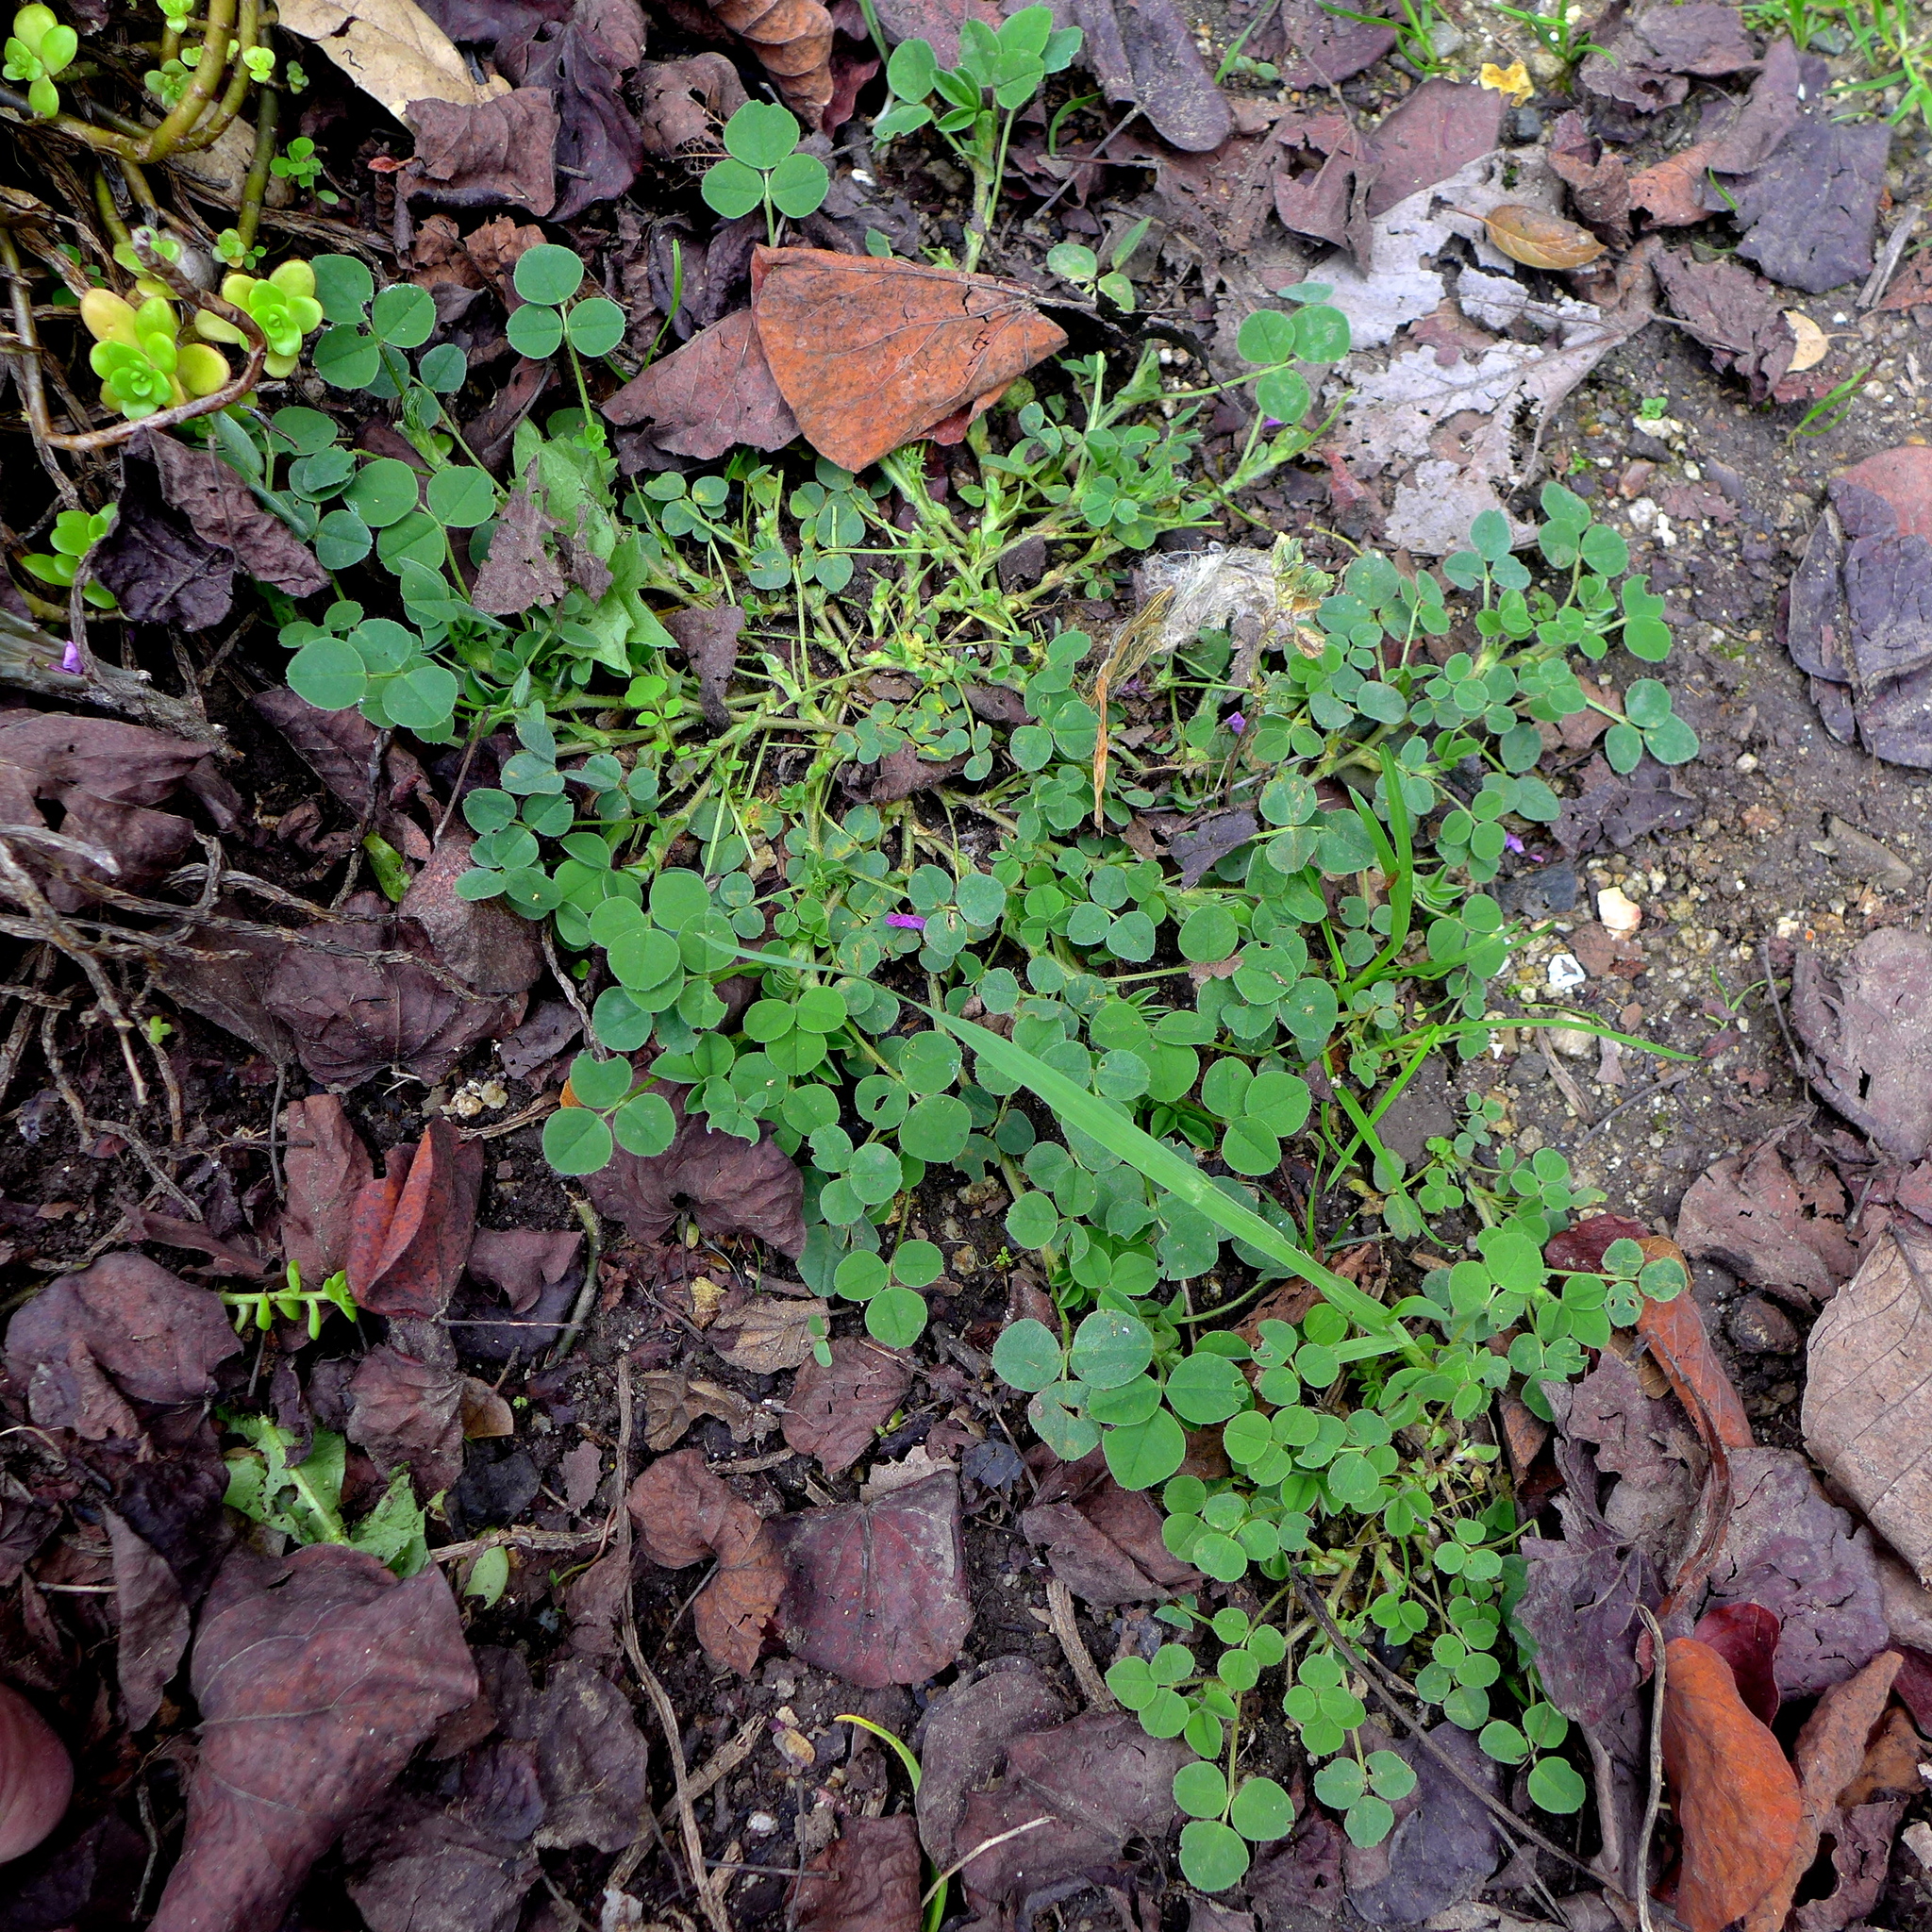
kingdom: Plantae
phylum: Tracheophyta
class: Magnoliopsida
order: Fabales
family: Fabaceae
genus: Medicago
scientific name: Medicago polymorpha
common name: Burclover
